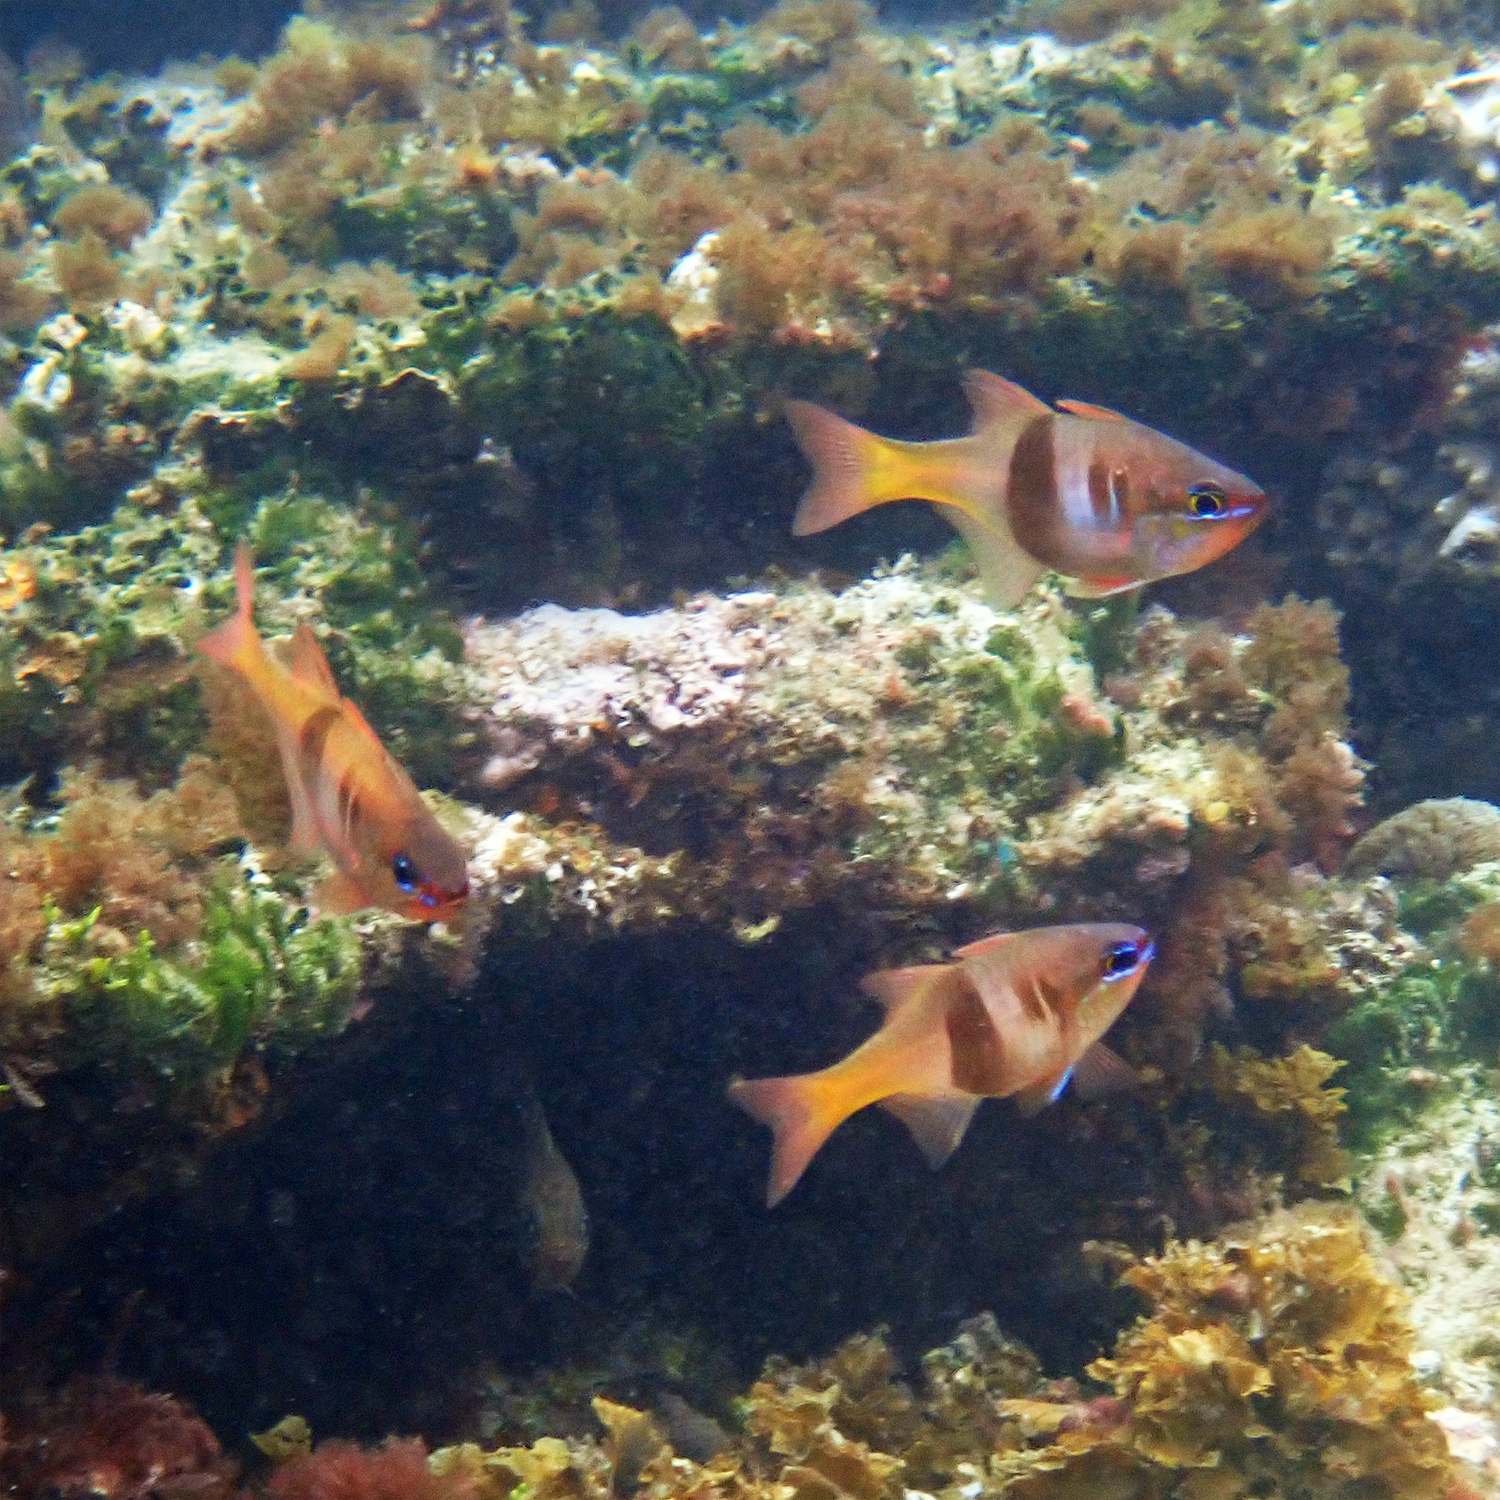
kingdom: Animalia
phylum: Chordata
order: Perciformes
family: Apogonidae
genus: Taeniamia
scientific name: Taeniamia leai
